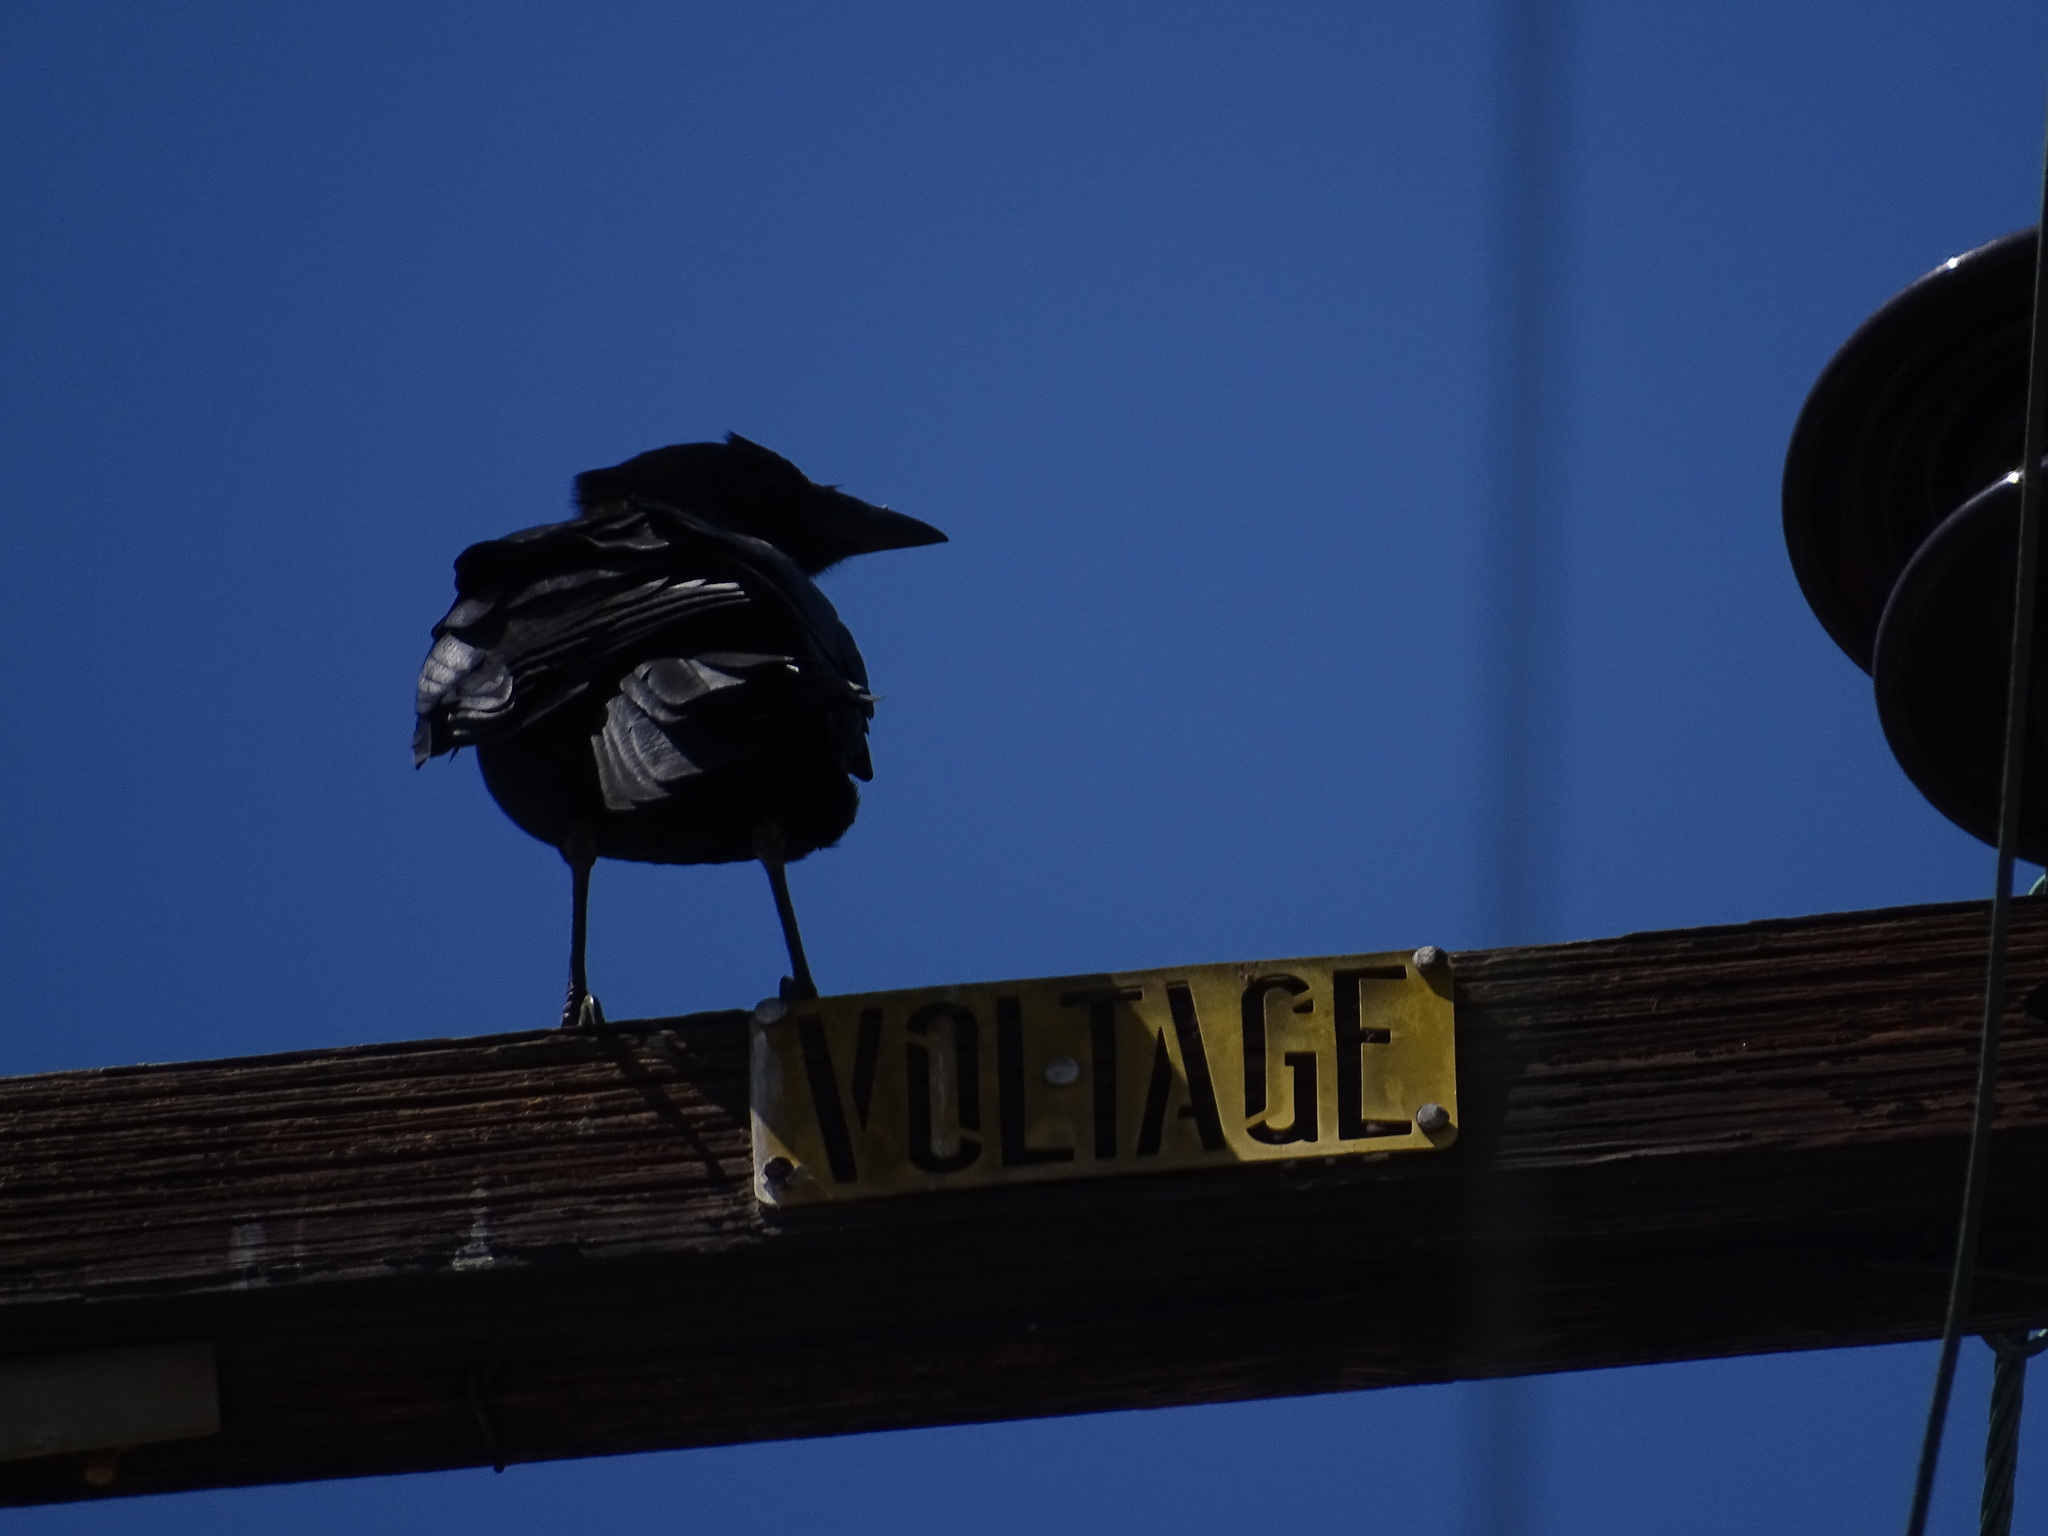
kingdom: Animalia
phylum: Chordata
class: Aves
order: Passeriformes
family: Corvidae
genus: Corvus
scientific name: Corvus brachyrhynchos
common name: American crow
